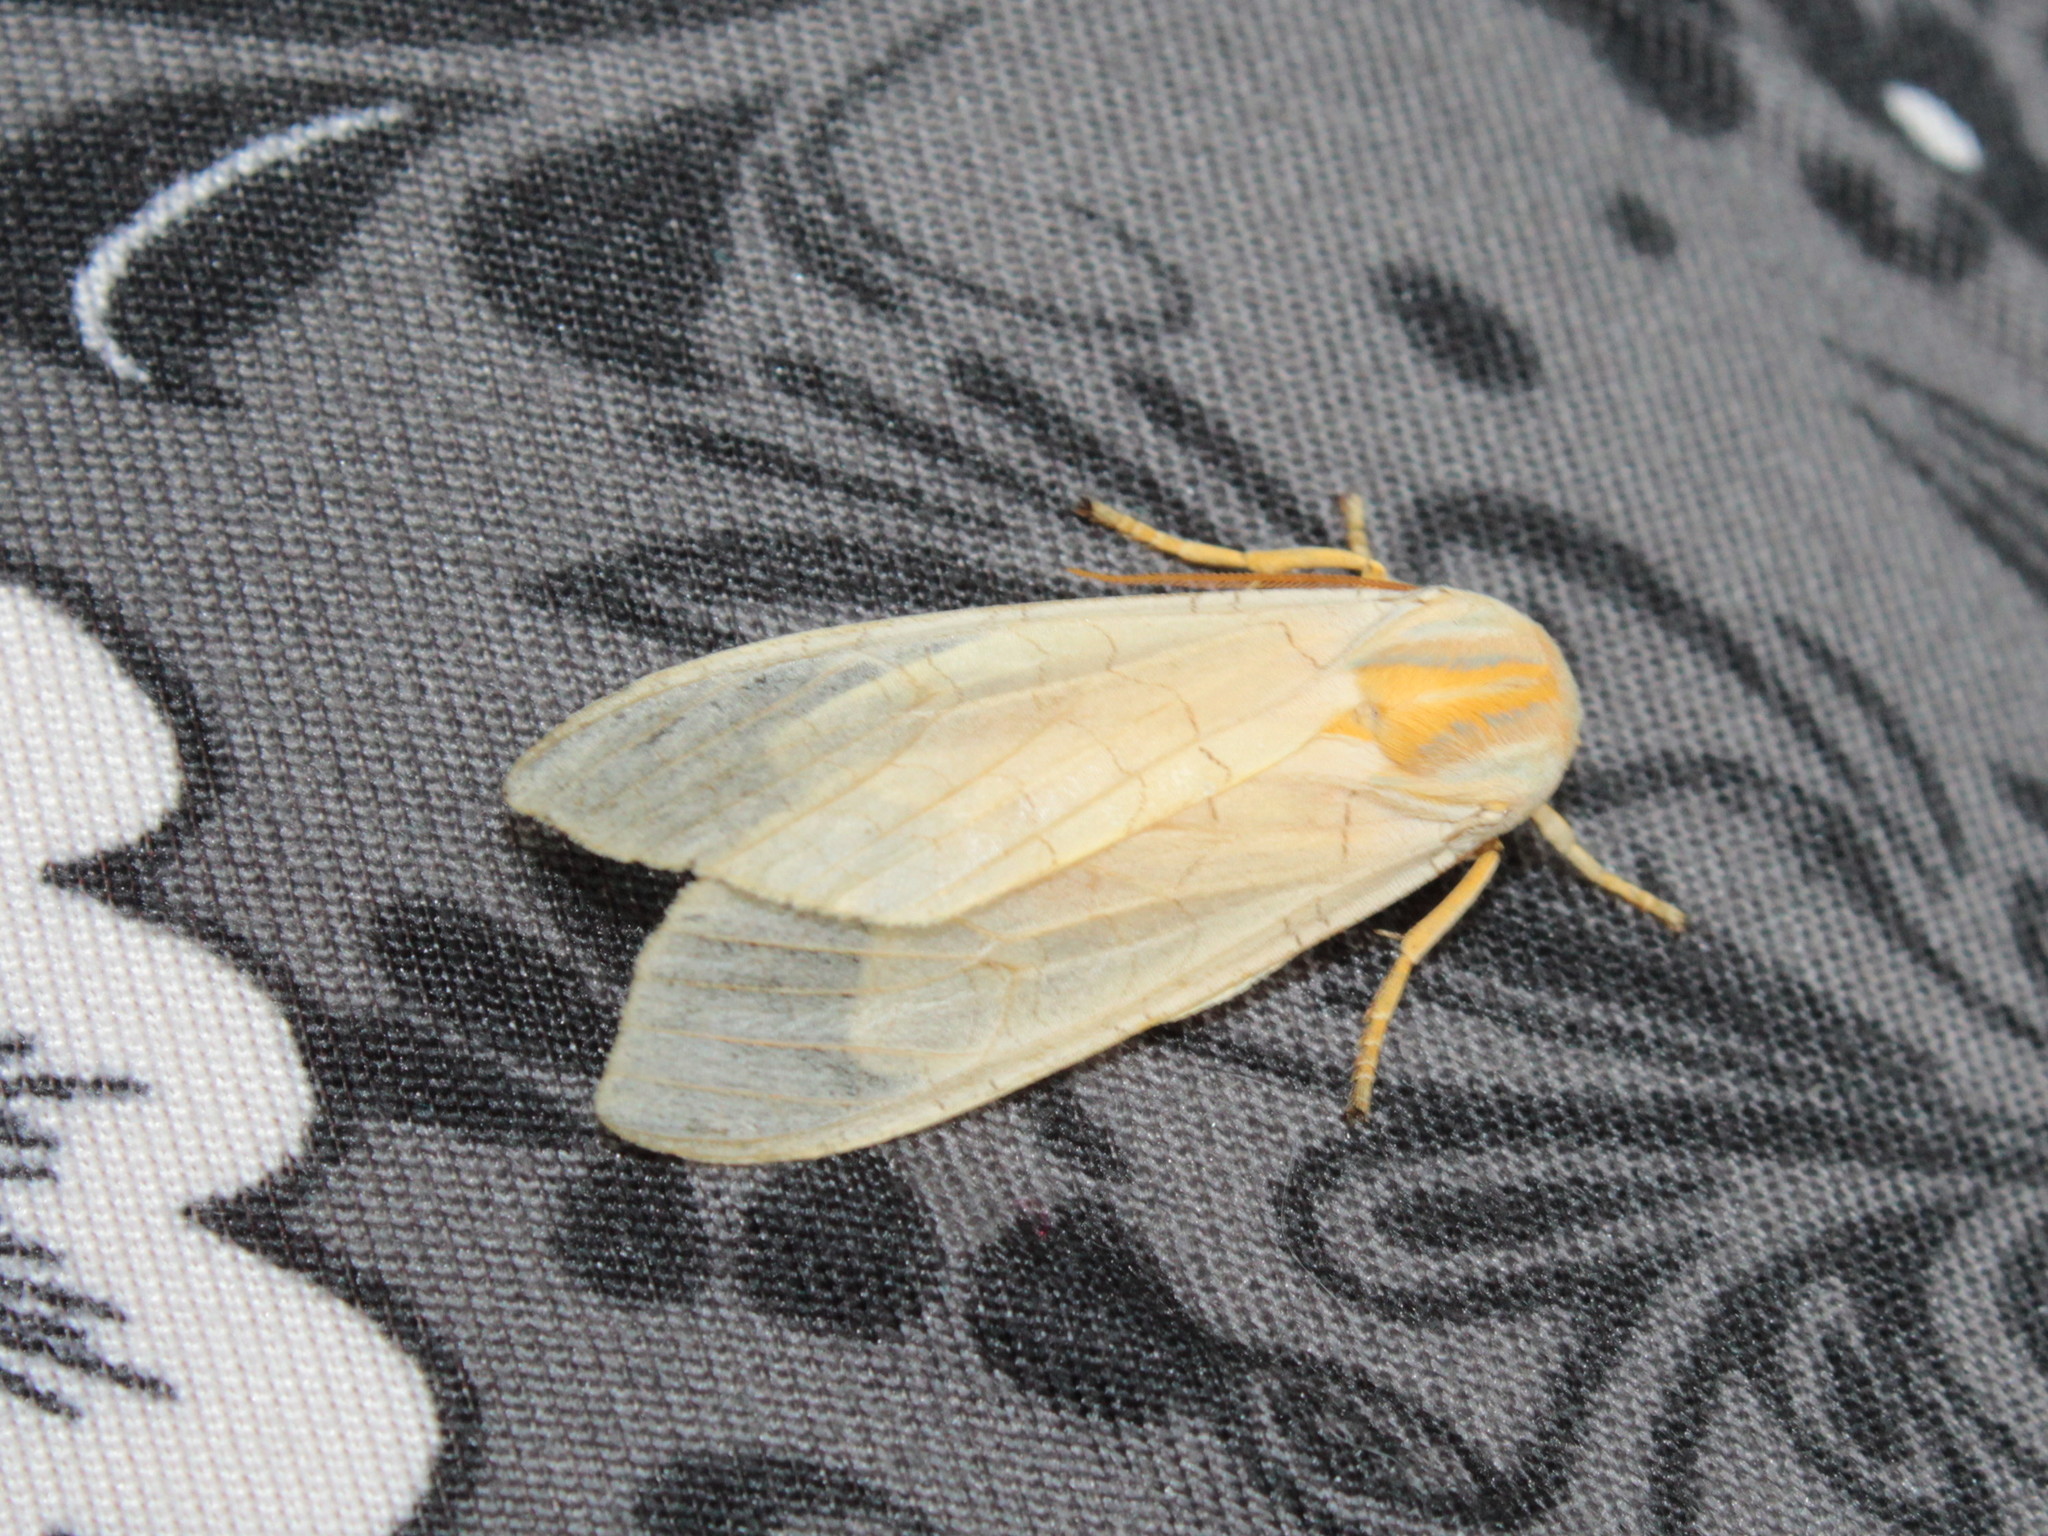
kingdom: Animalia
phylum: Arthropoda
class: Insecta
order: Lepidoptera
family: Erebidae
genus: Halysidota
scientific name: Halysidota tessellaris
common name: Banded tussock moth
